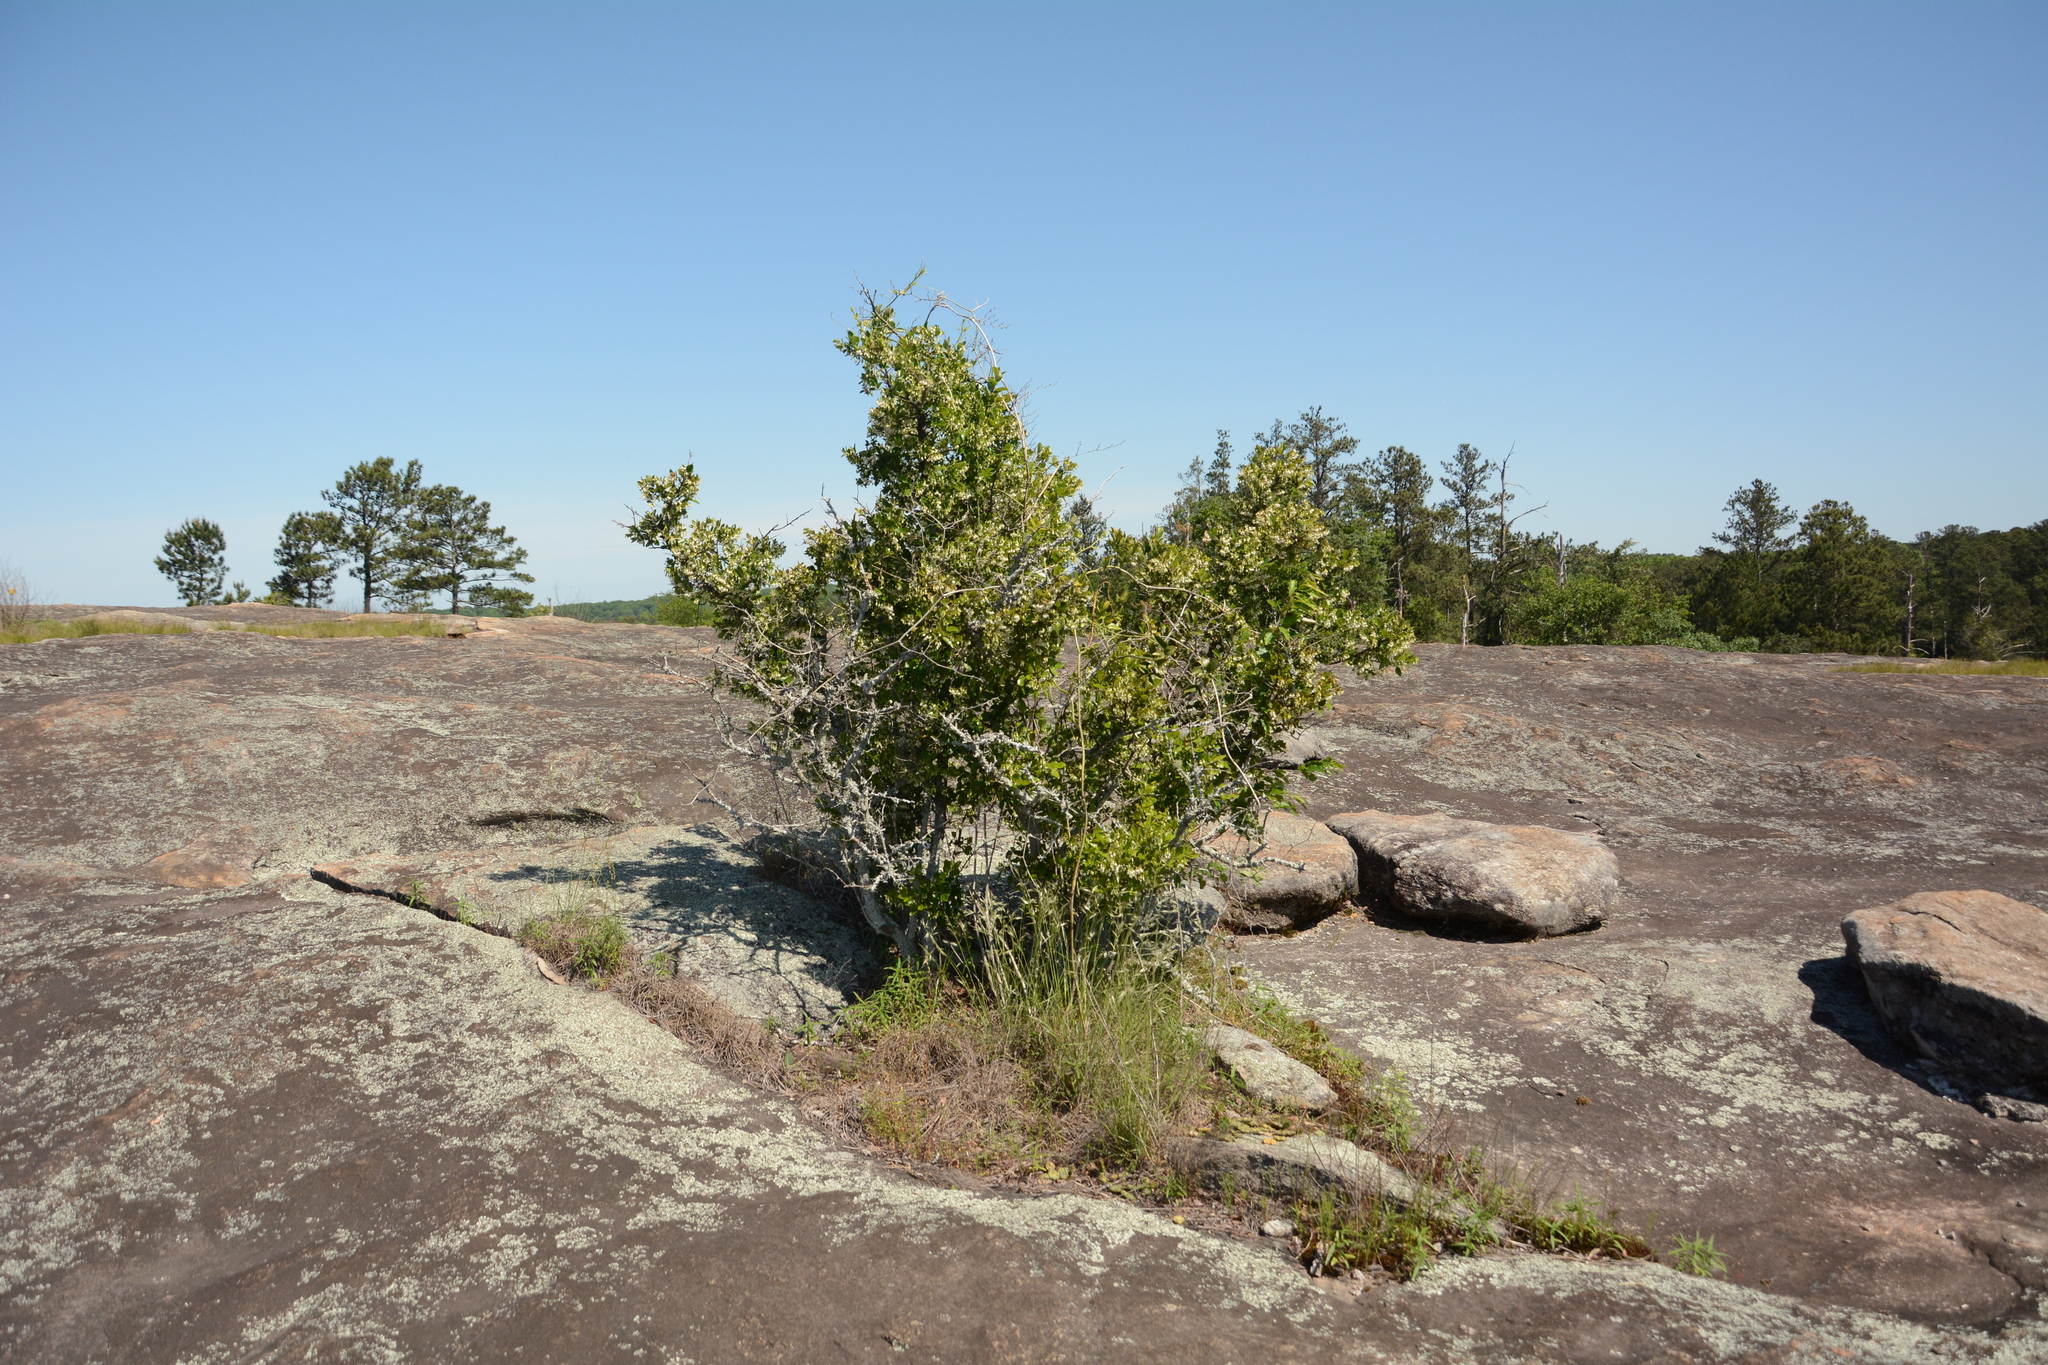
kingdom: Plantae
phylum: Tracheophyta
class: Magnoliopsida
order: Ericales
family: Ericaceae
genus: Vaccinium
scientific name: Vaccinium arboreum
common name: Farkleberry
